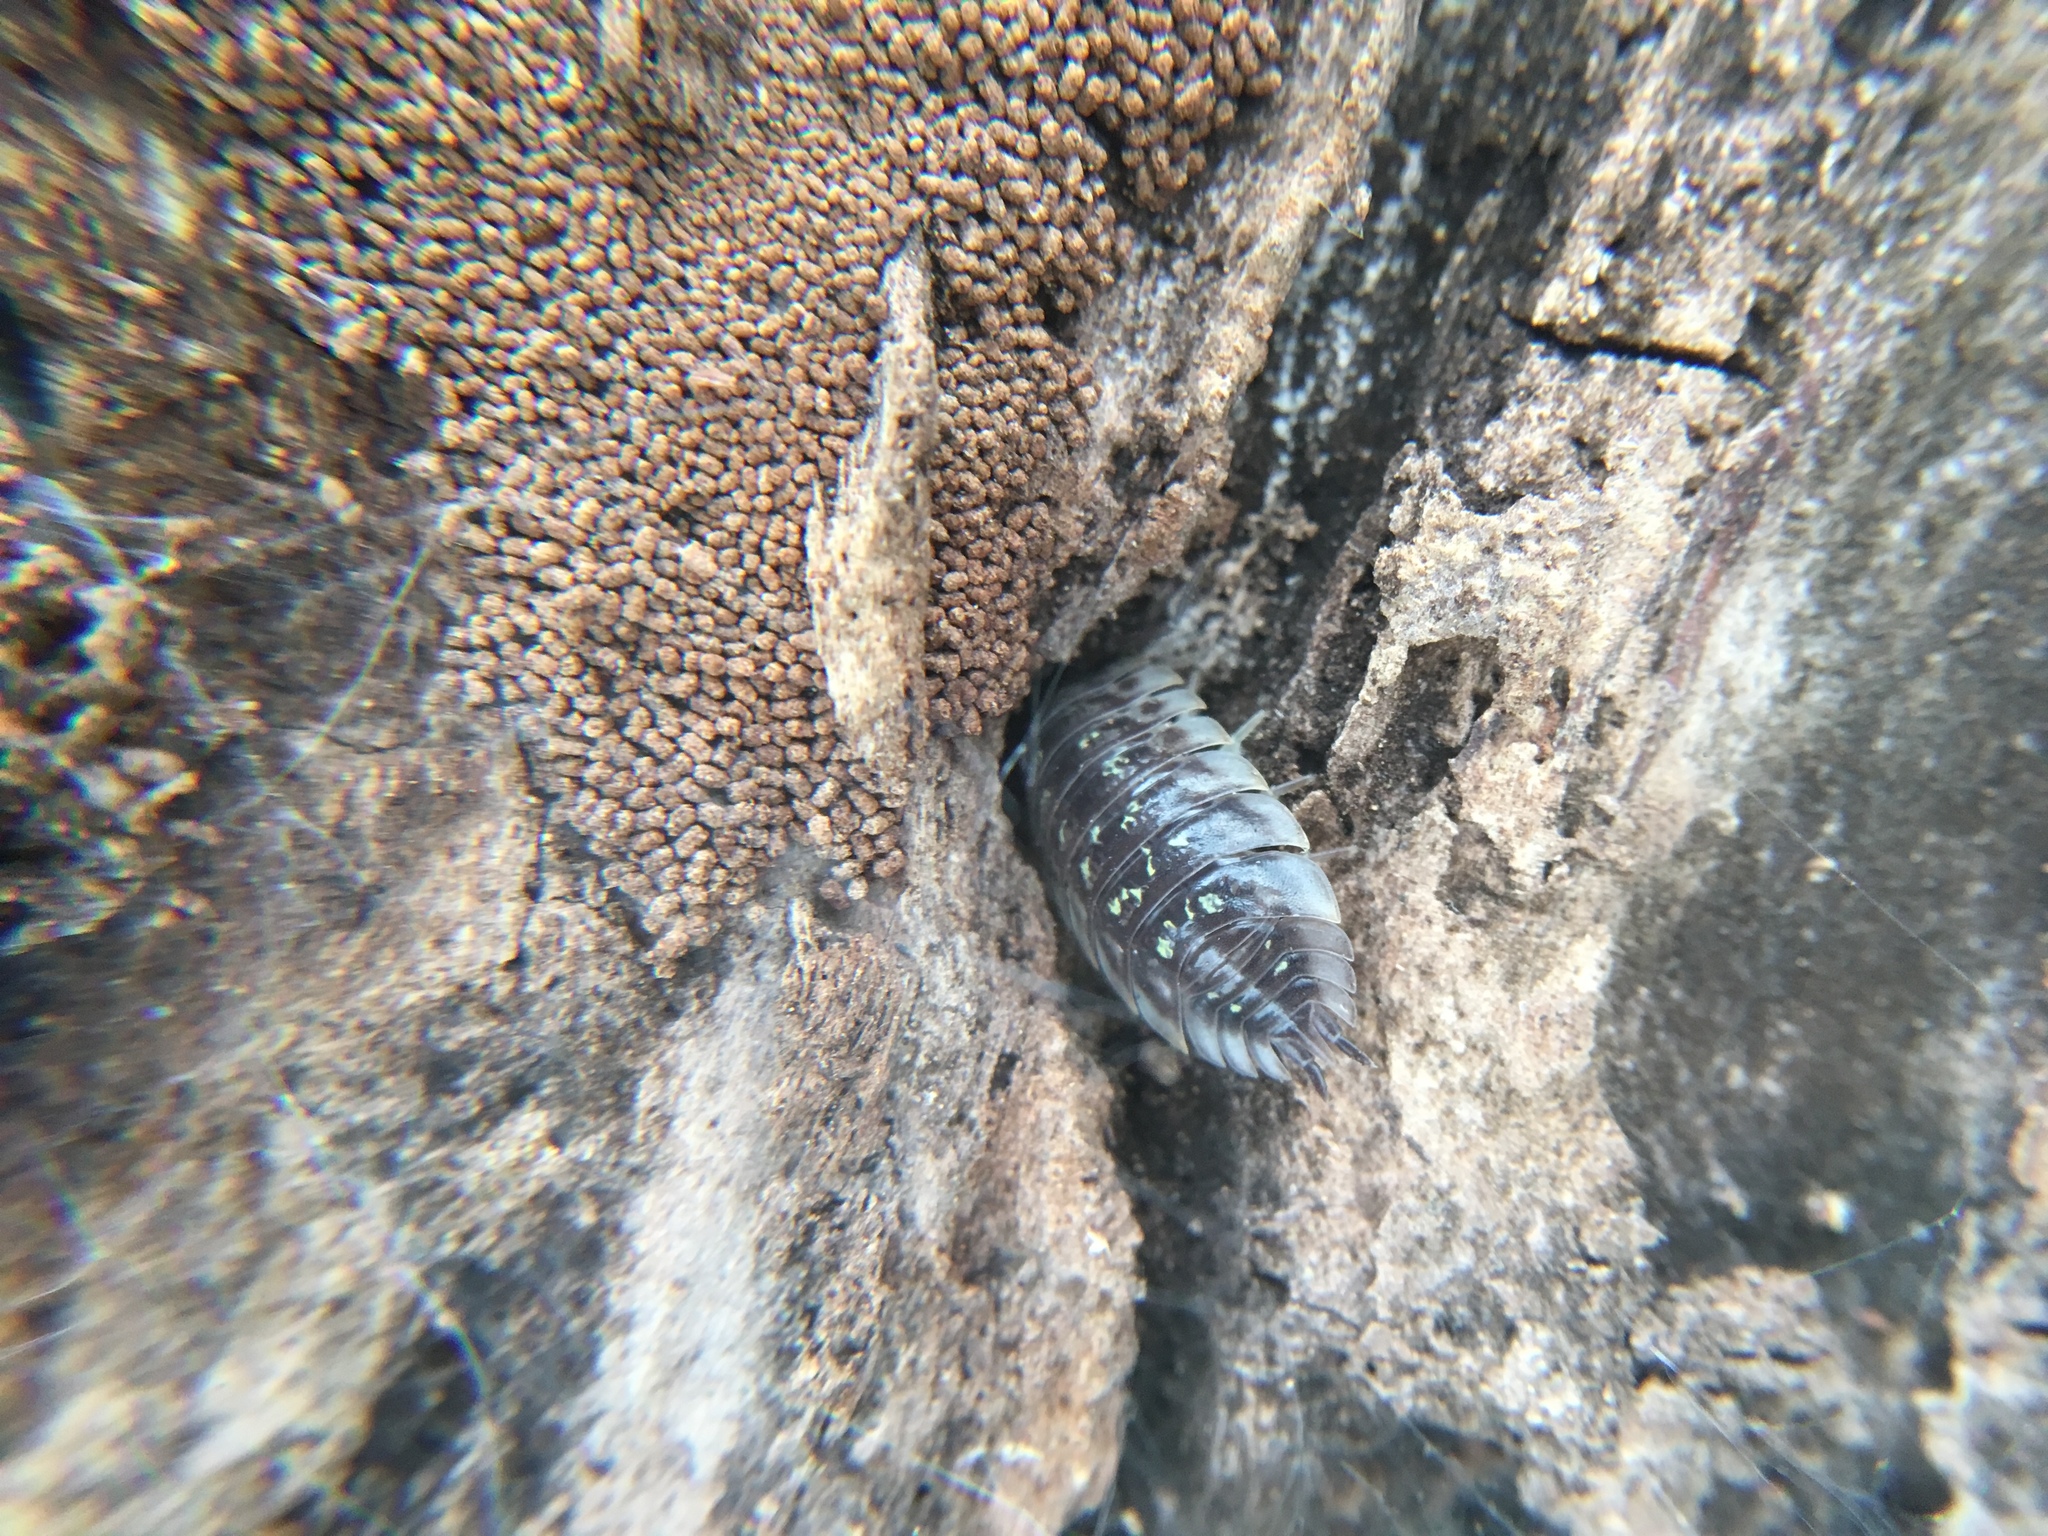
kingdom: Animalia
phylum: Arthropoda
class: Malacostraca
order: Isopoda
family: Oniscidae
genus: Oniscus
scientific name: Oniscus asellus
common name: Common shiny woodlouse
